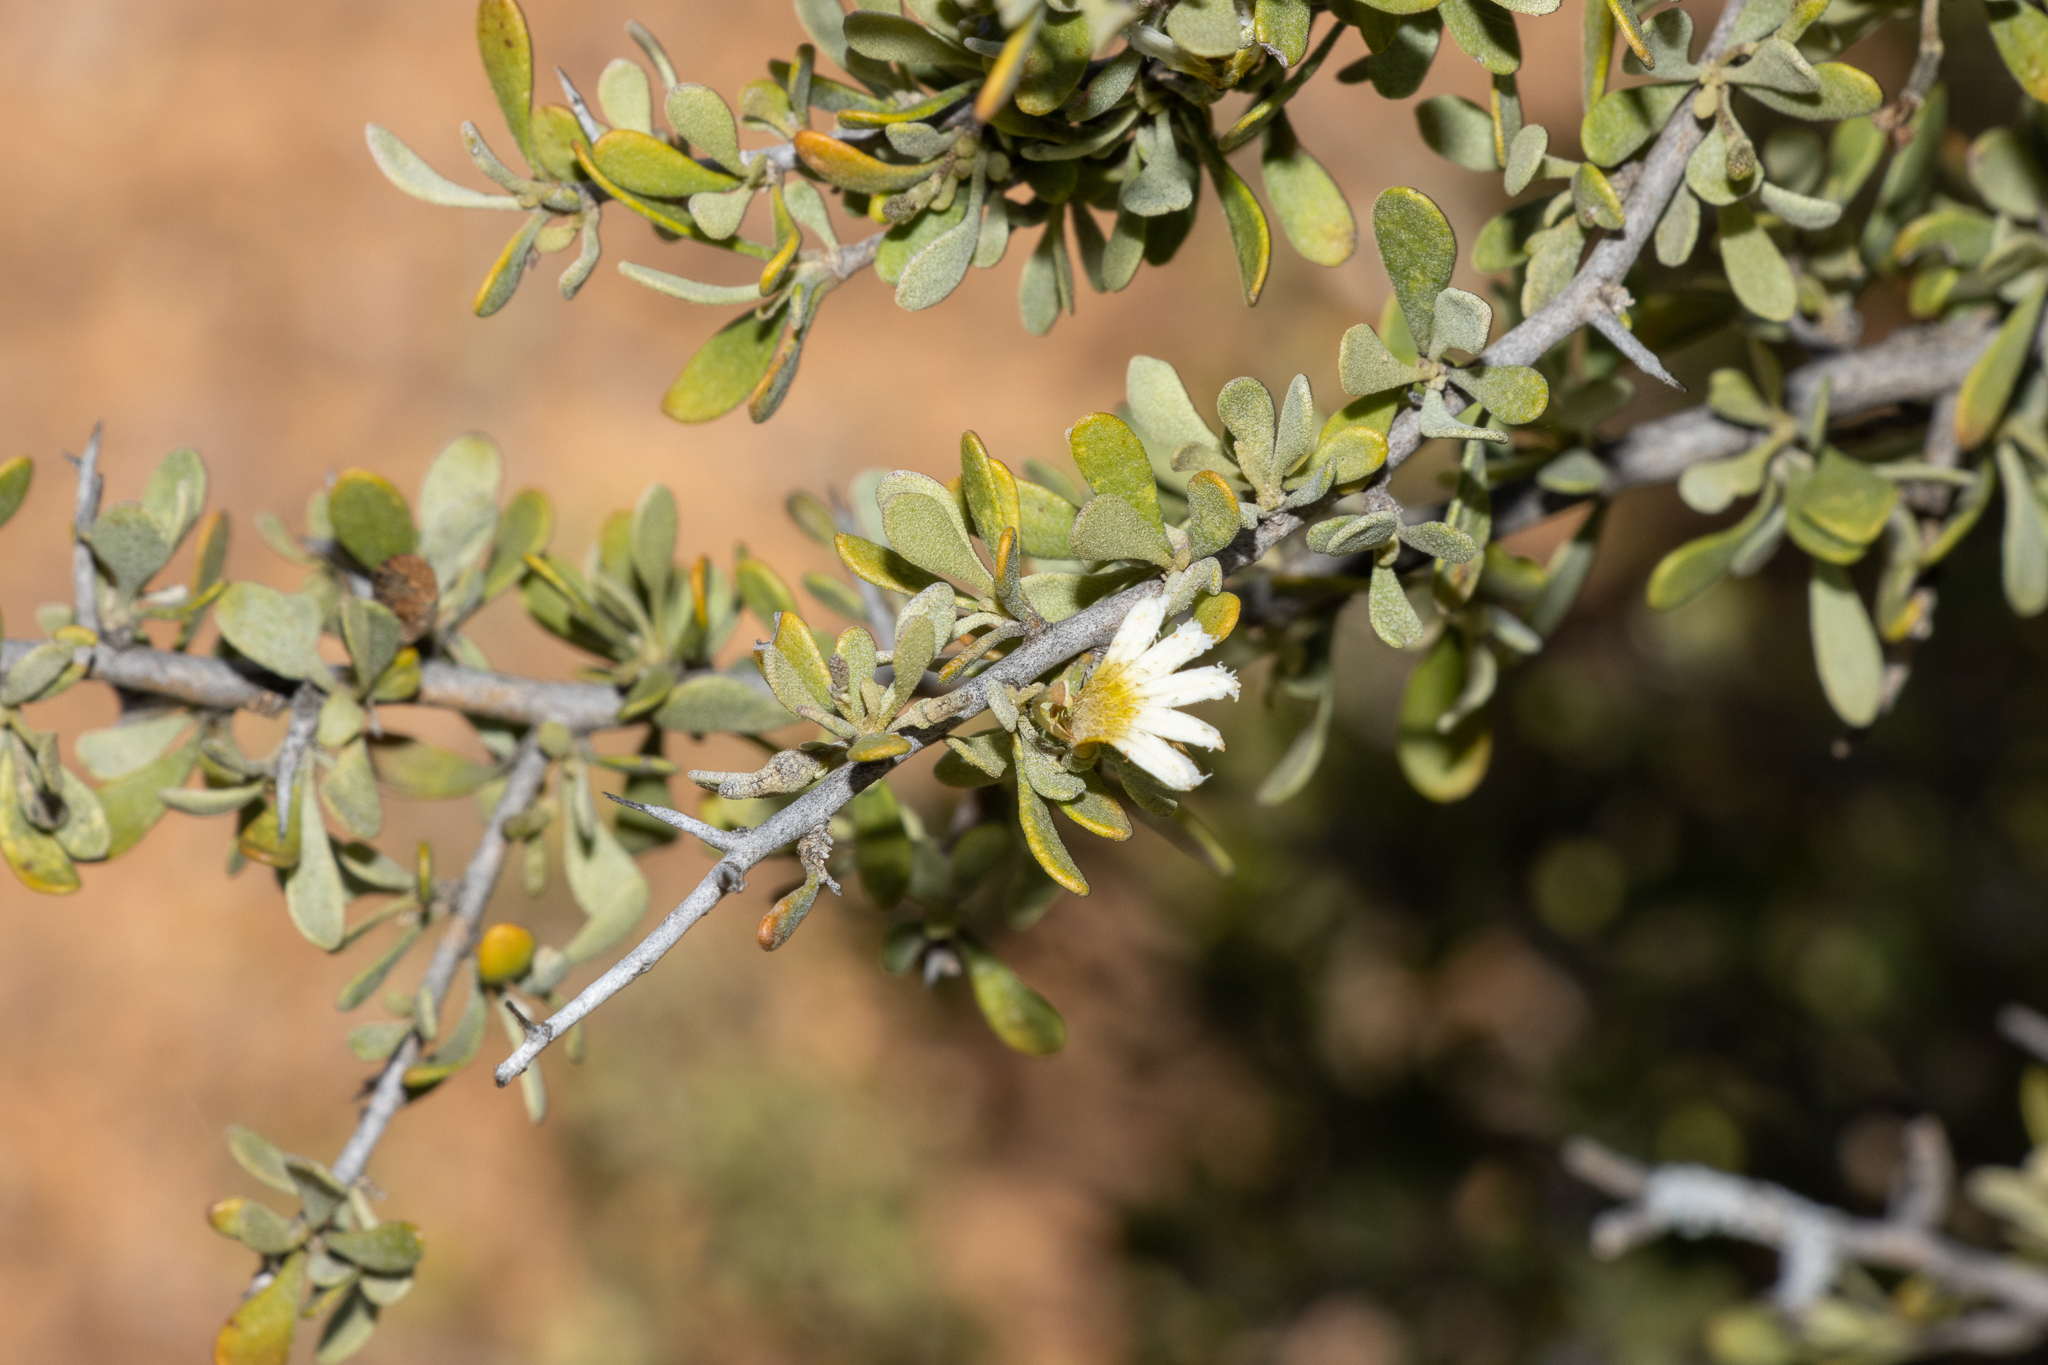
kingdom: Plantae
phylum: Tracheophyta
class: Magnoliopsida
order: Asterales
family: Goodeniaceae
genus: Scaevola
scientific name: Scaevola spinescens
